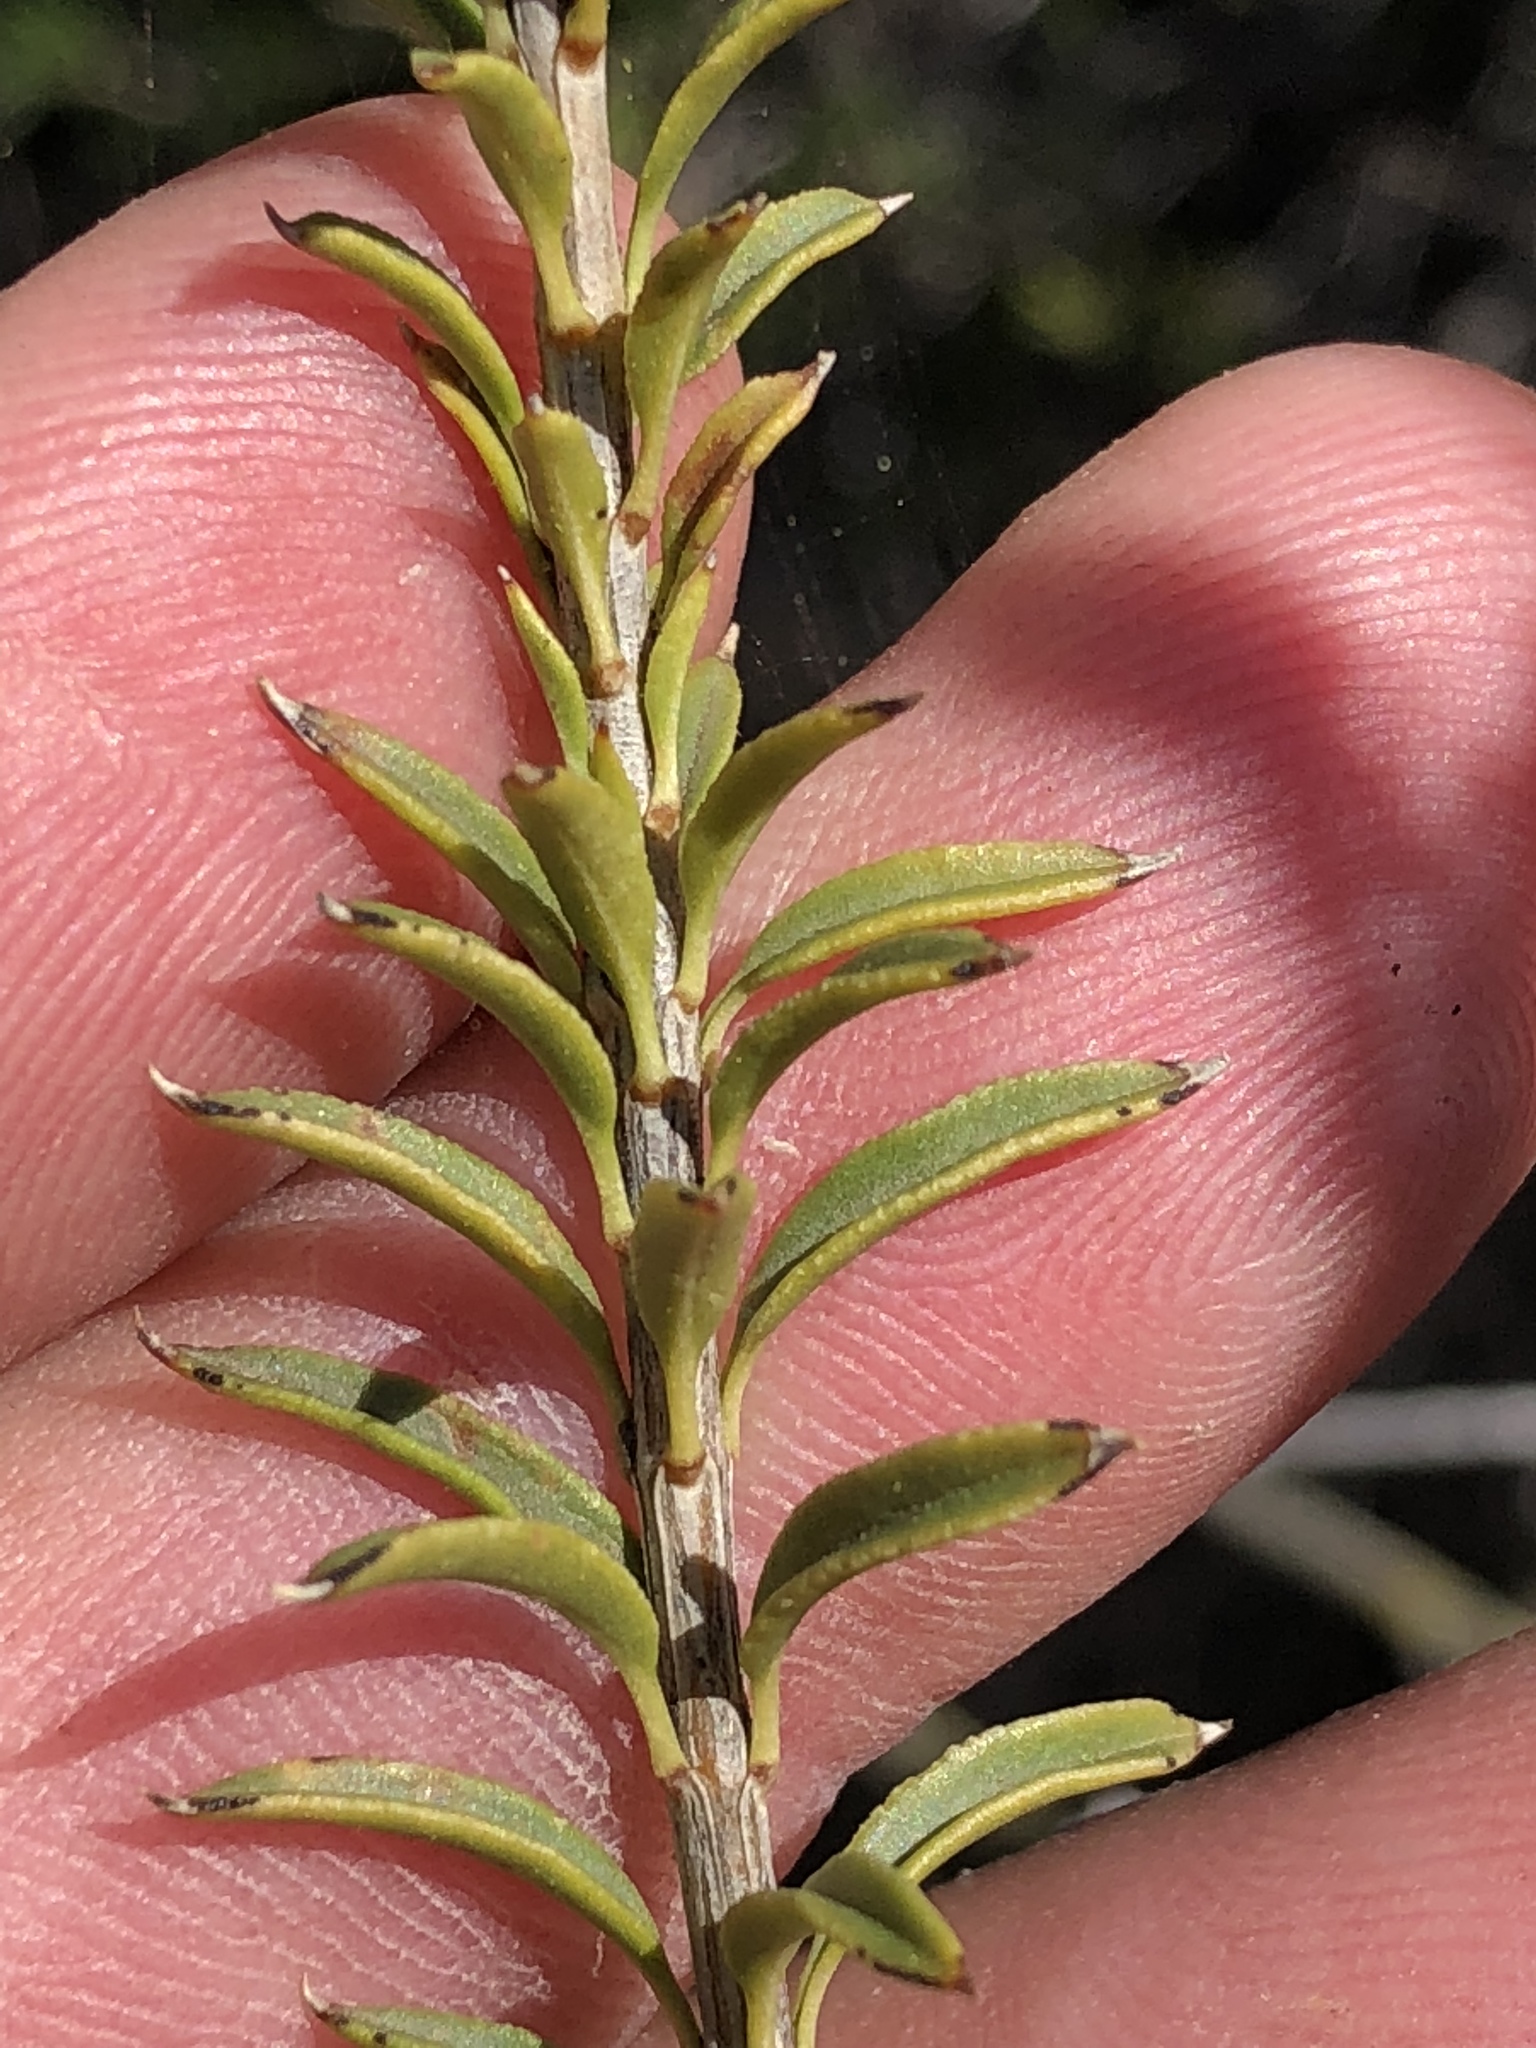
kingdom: Plantae
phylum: Tracheophyta
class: Magnoliopsida
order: Lamiales
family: Scrophulariaceae
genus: Freylinia
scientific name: Freylinia densiflora
